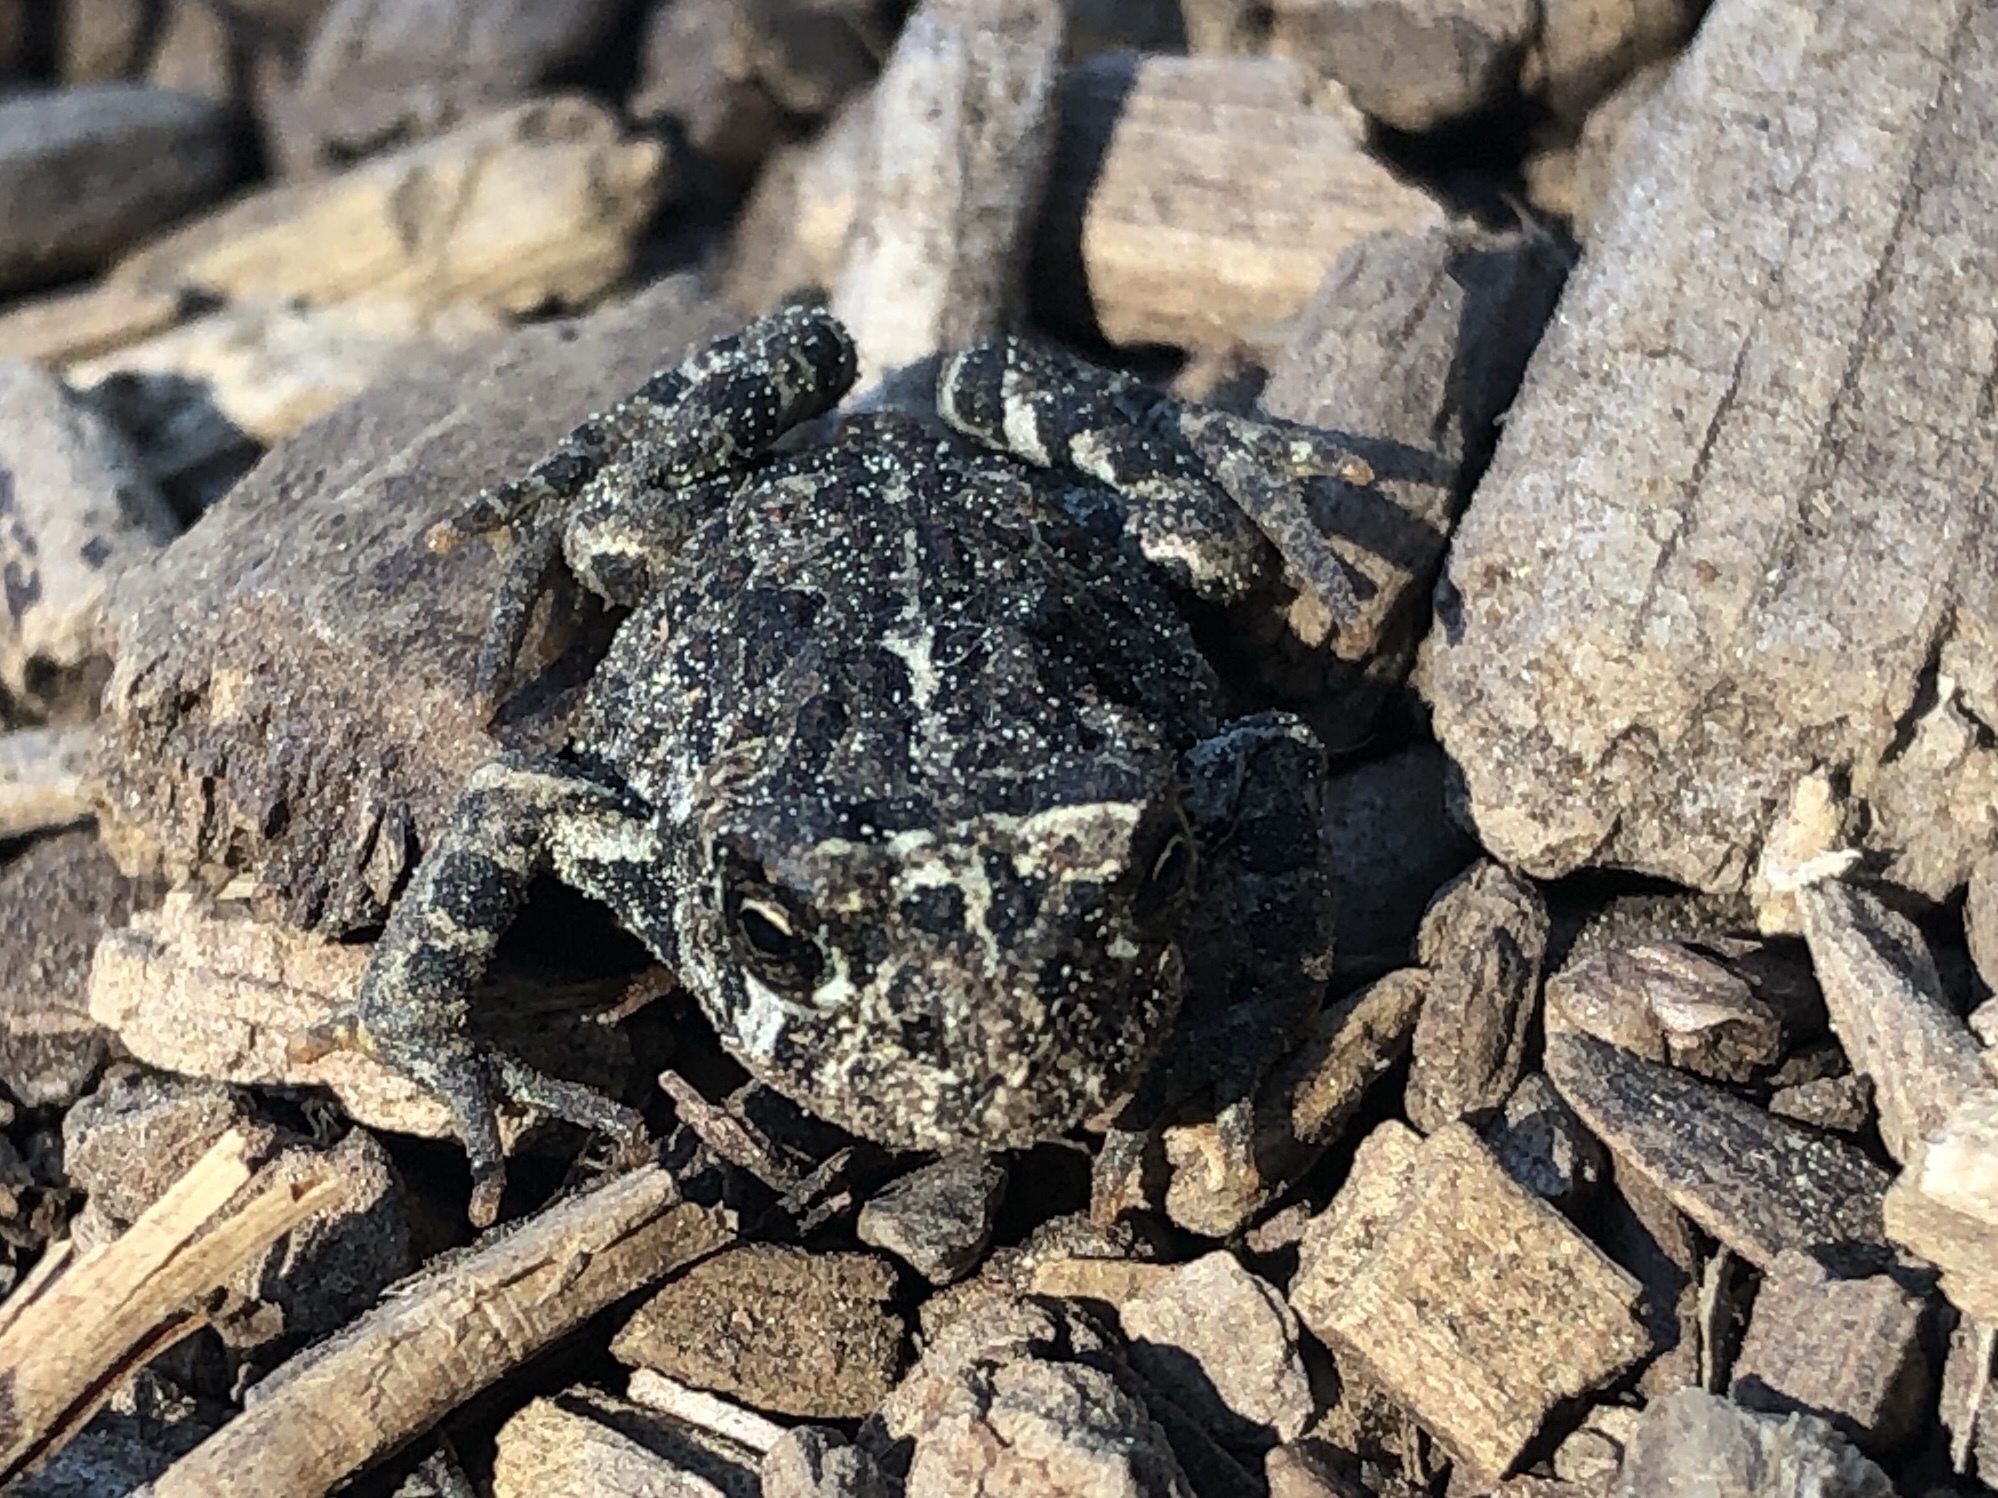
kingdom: Animalia
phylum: Chordata
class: Amphibia
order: Anura
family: Bufonidae
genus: Anaxyrus
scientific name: Anaxyrus boreas
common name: Western toad
